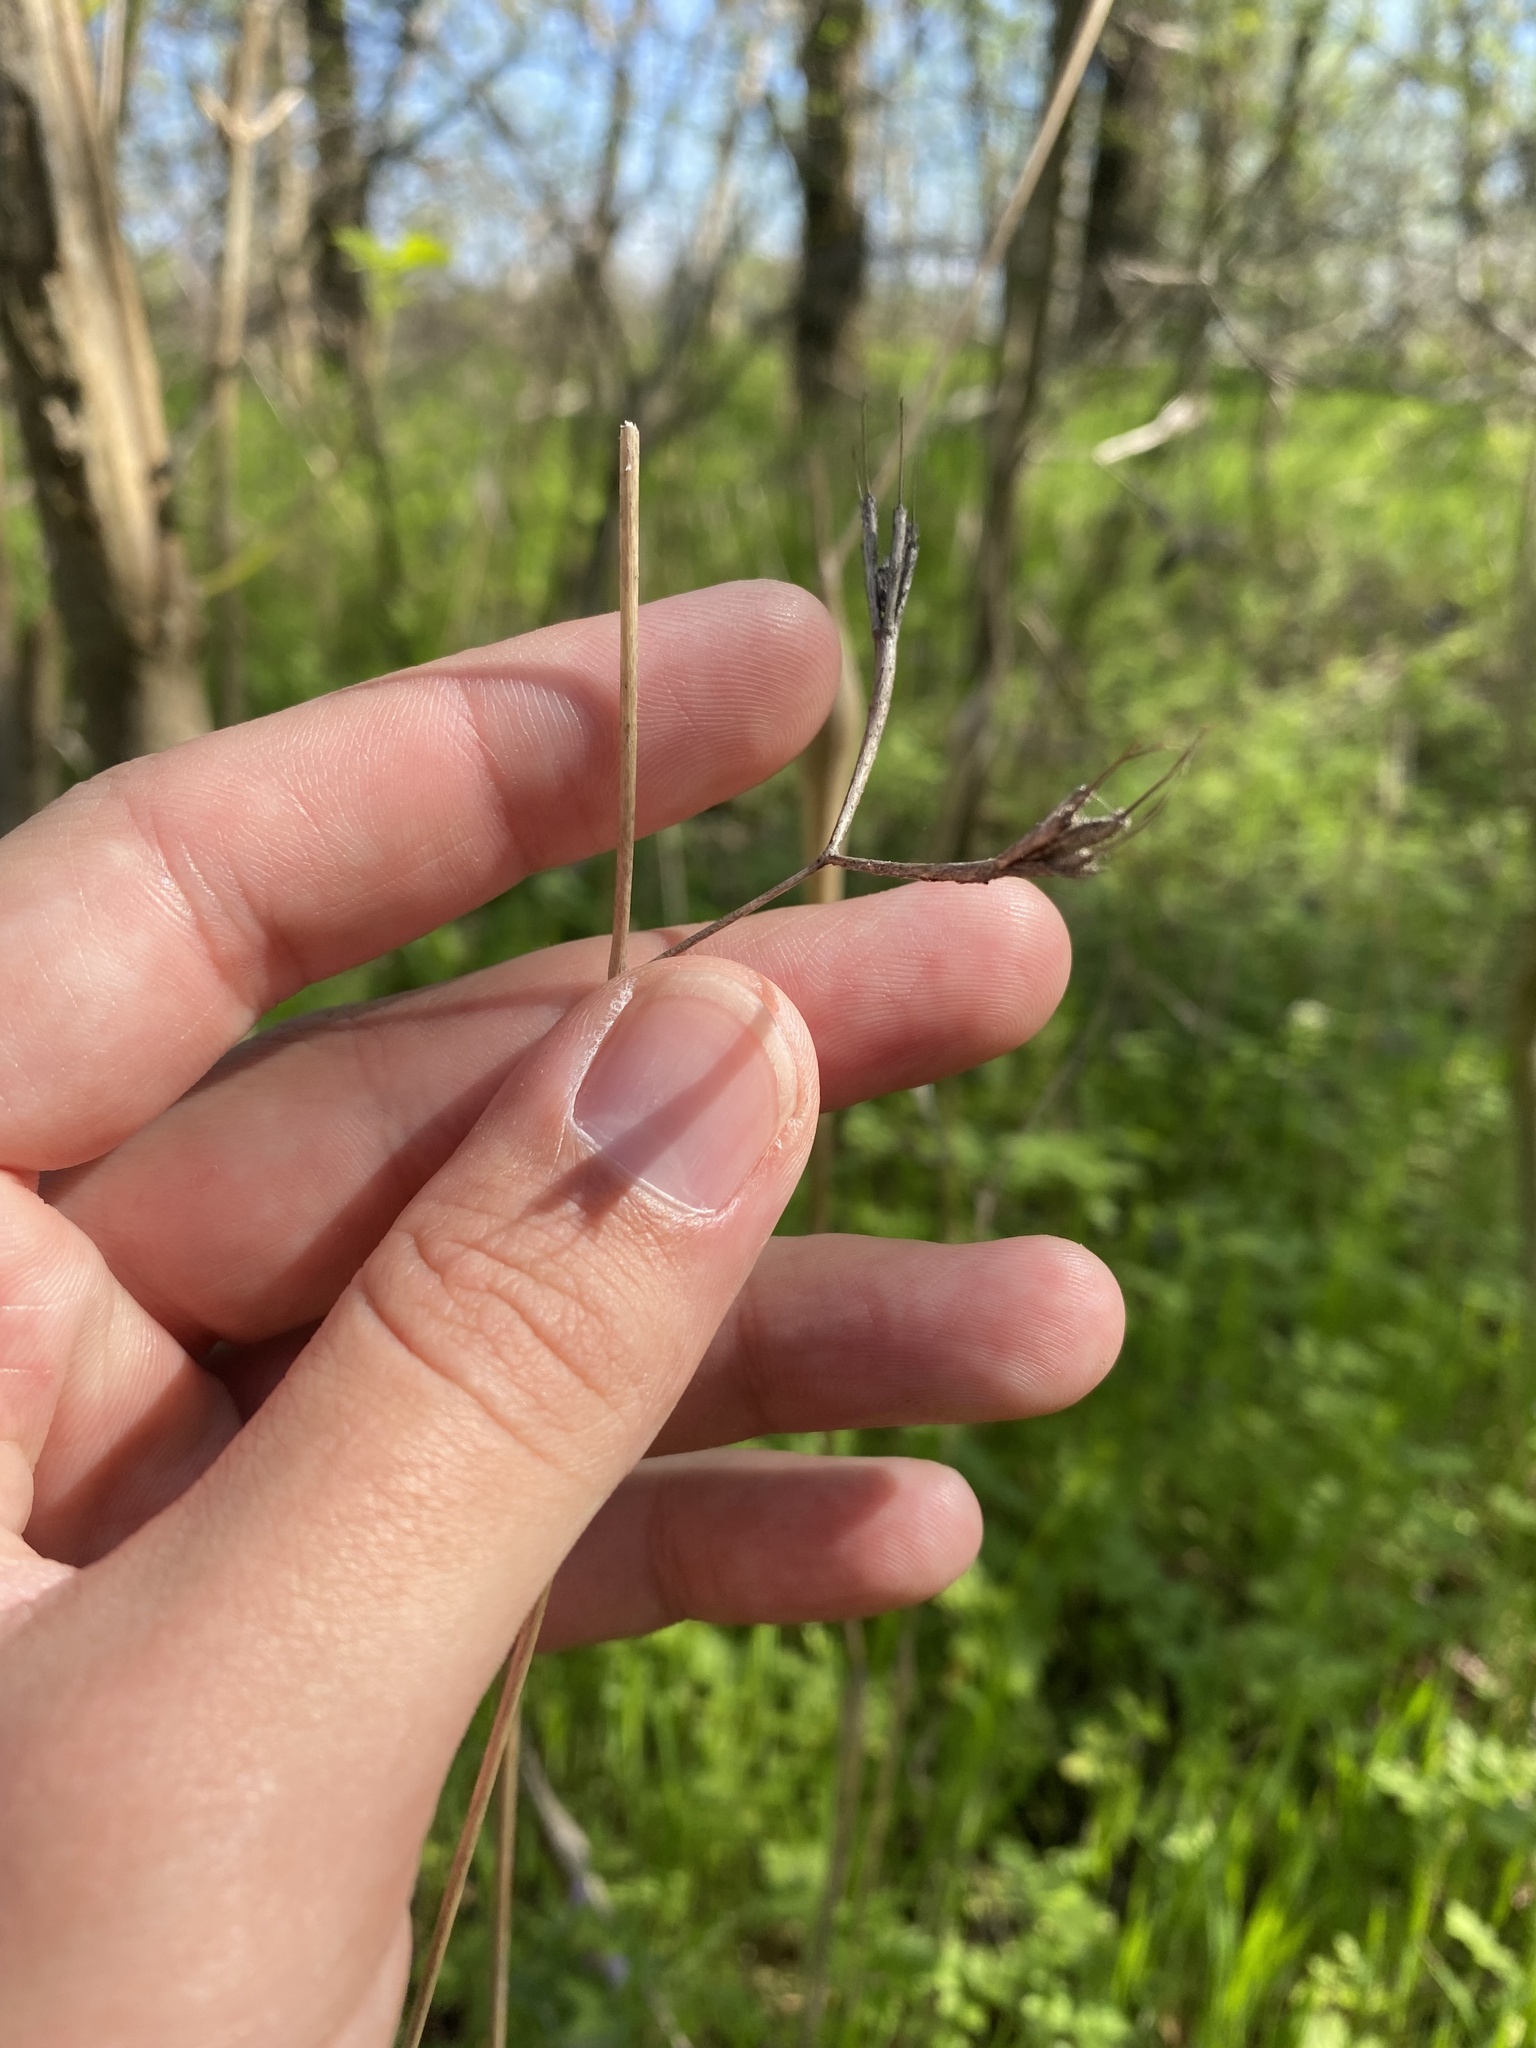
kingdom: Plantae
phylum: Tracheophyta
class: Magnoliopsida
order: Apiales
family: Apiaceae
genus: Chaerophyllum
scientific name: Chaerophyllum nodosum
